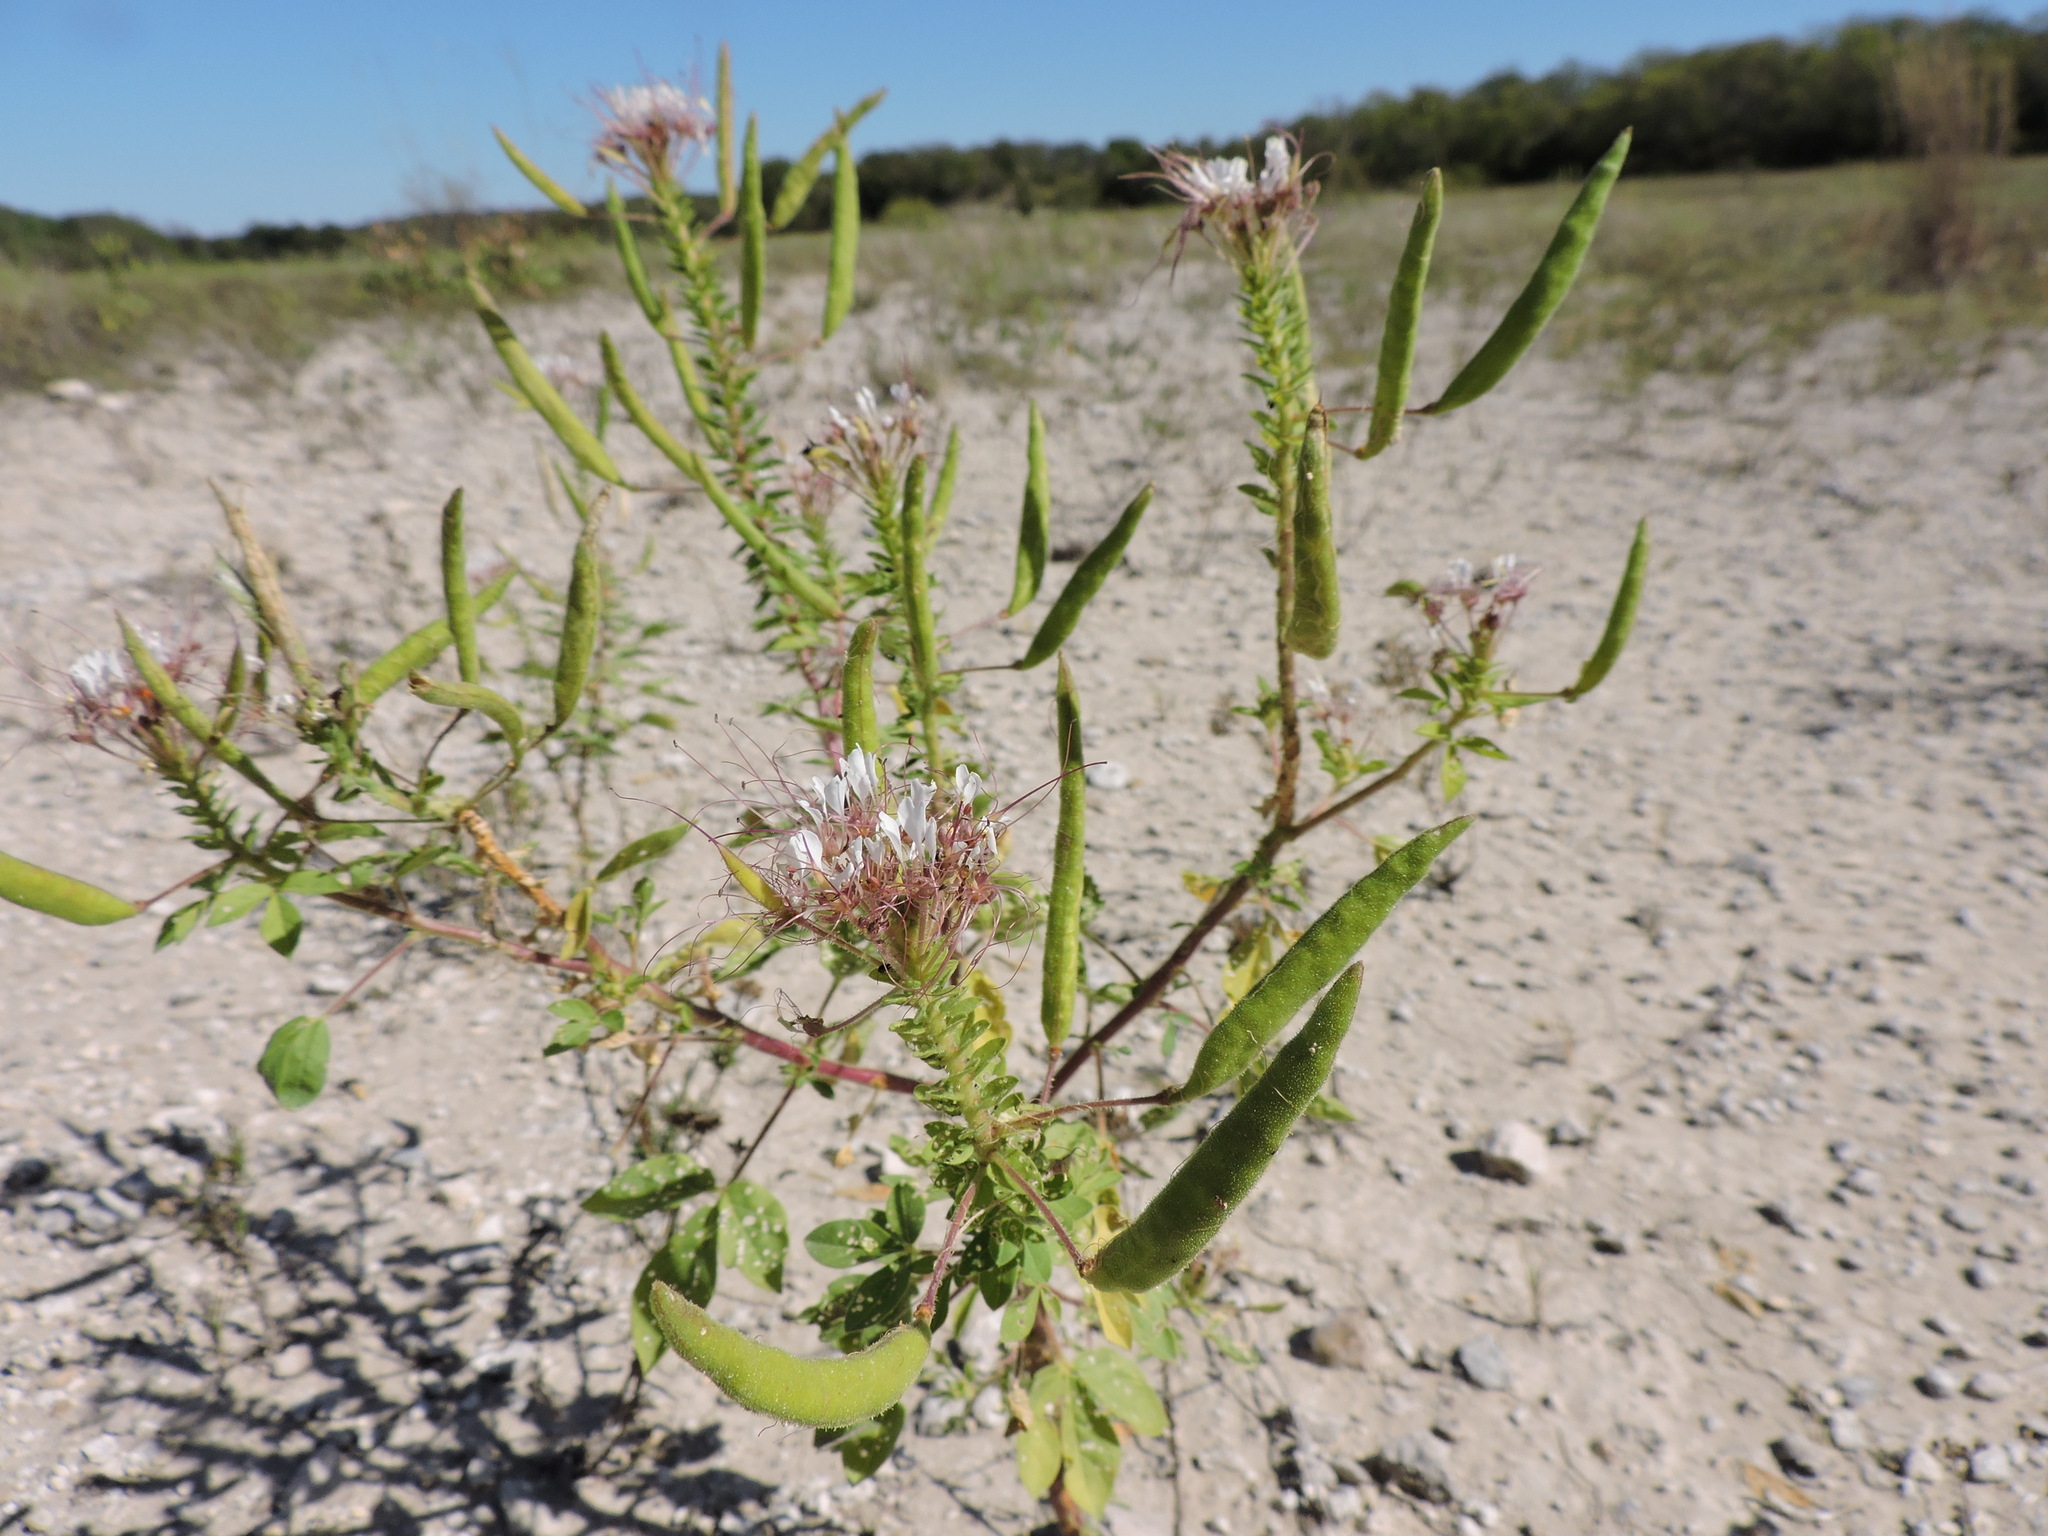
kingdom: Plantae
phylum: Tracheophyta
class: Magnoliopsida
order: Brassicales
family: Cleomaceae
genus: Polanisia
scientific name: Polanisia dodecandra
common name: Clammyweed
